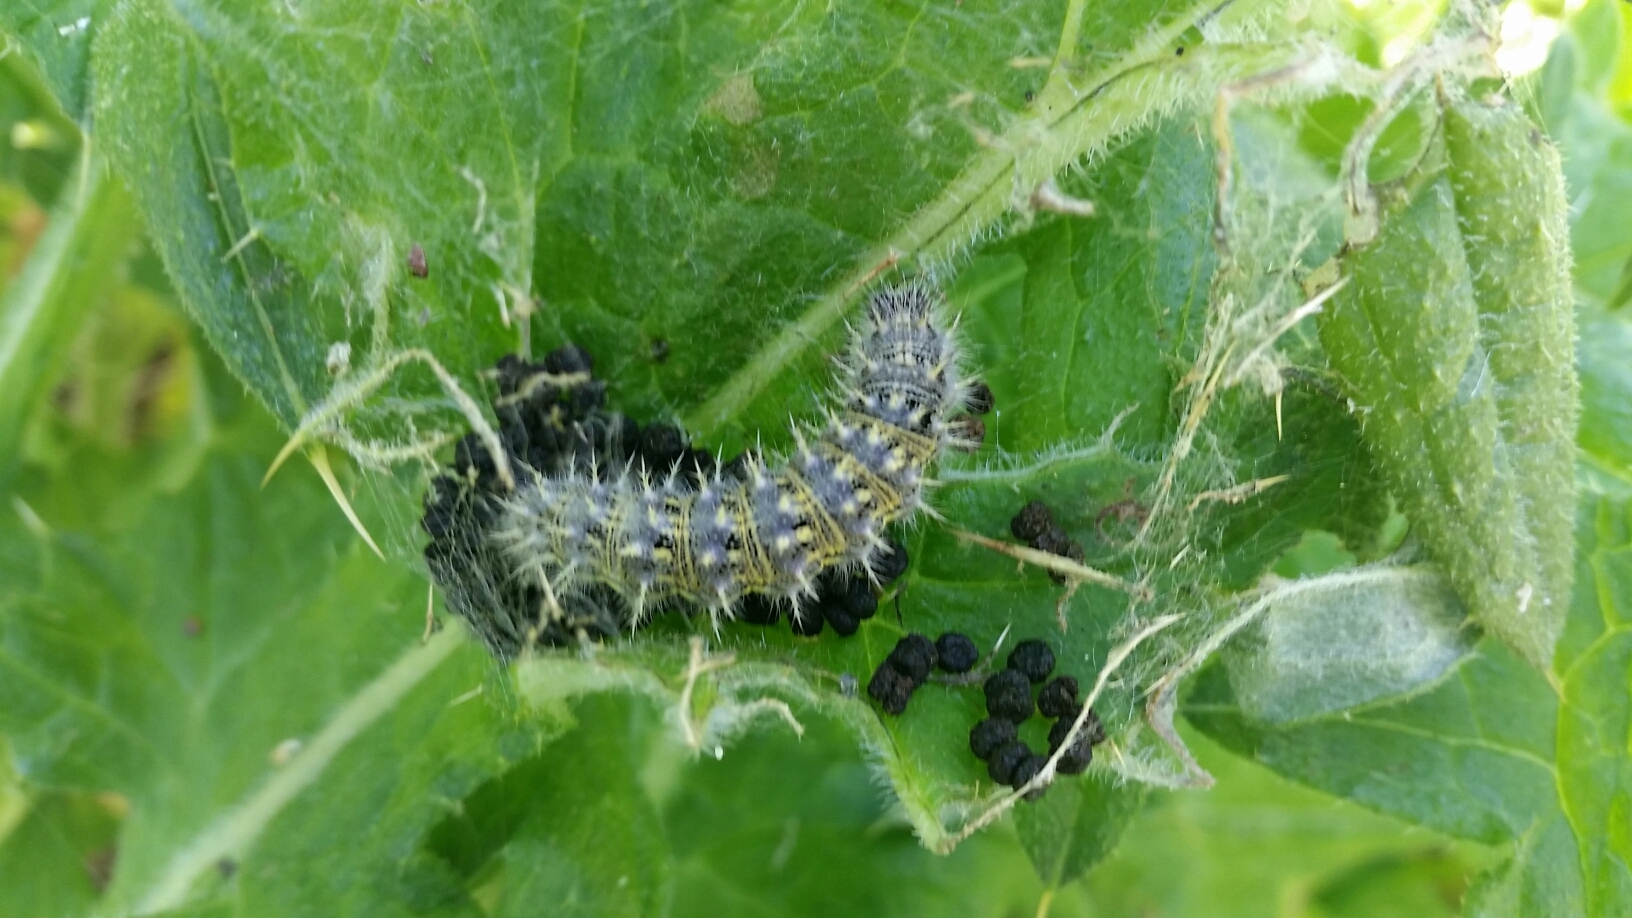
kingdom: Animalia
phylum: Arthropoda
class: Insecta
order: Lepidoptera
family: Nymphalidae
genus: Vanessa
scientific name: Vanessa cardui
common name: Painted lady
